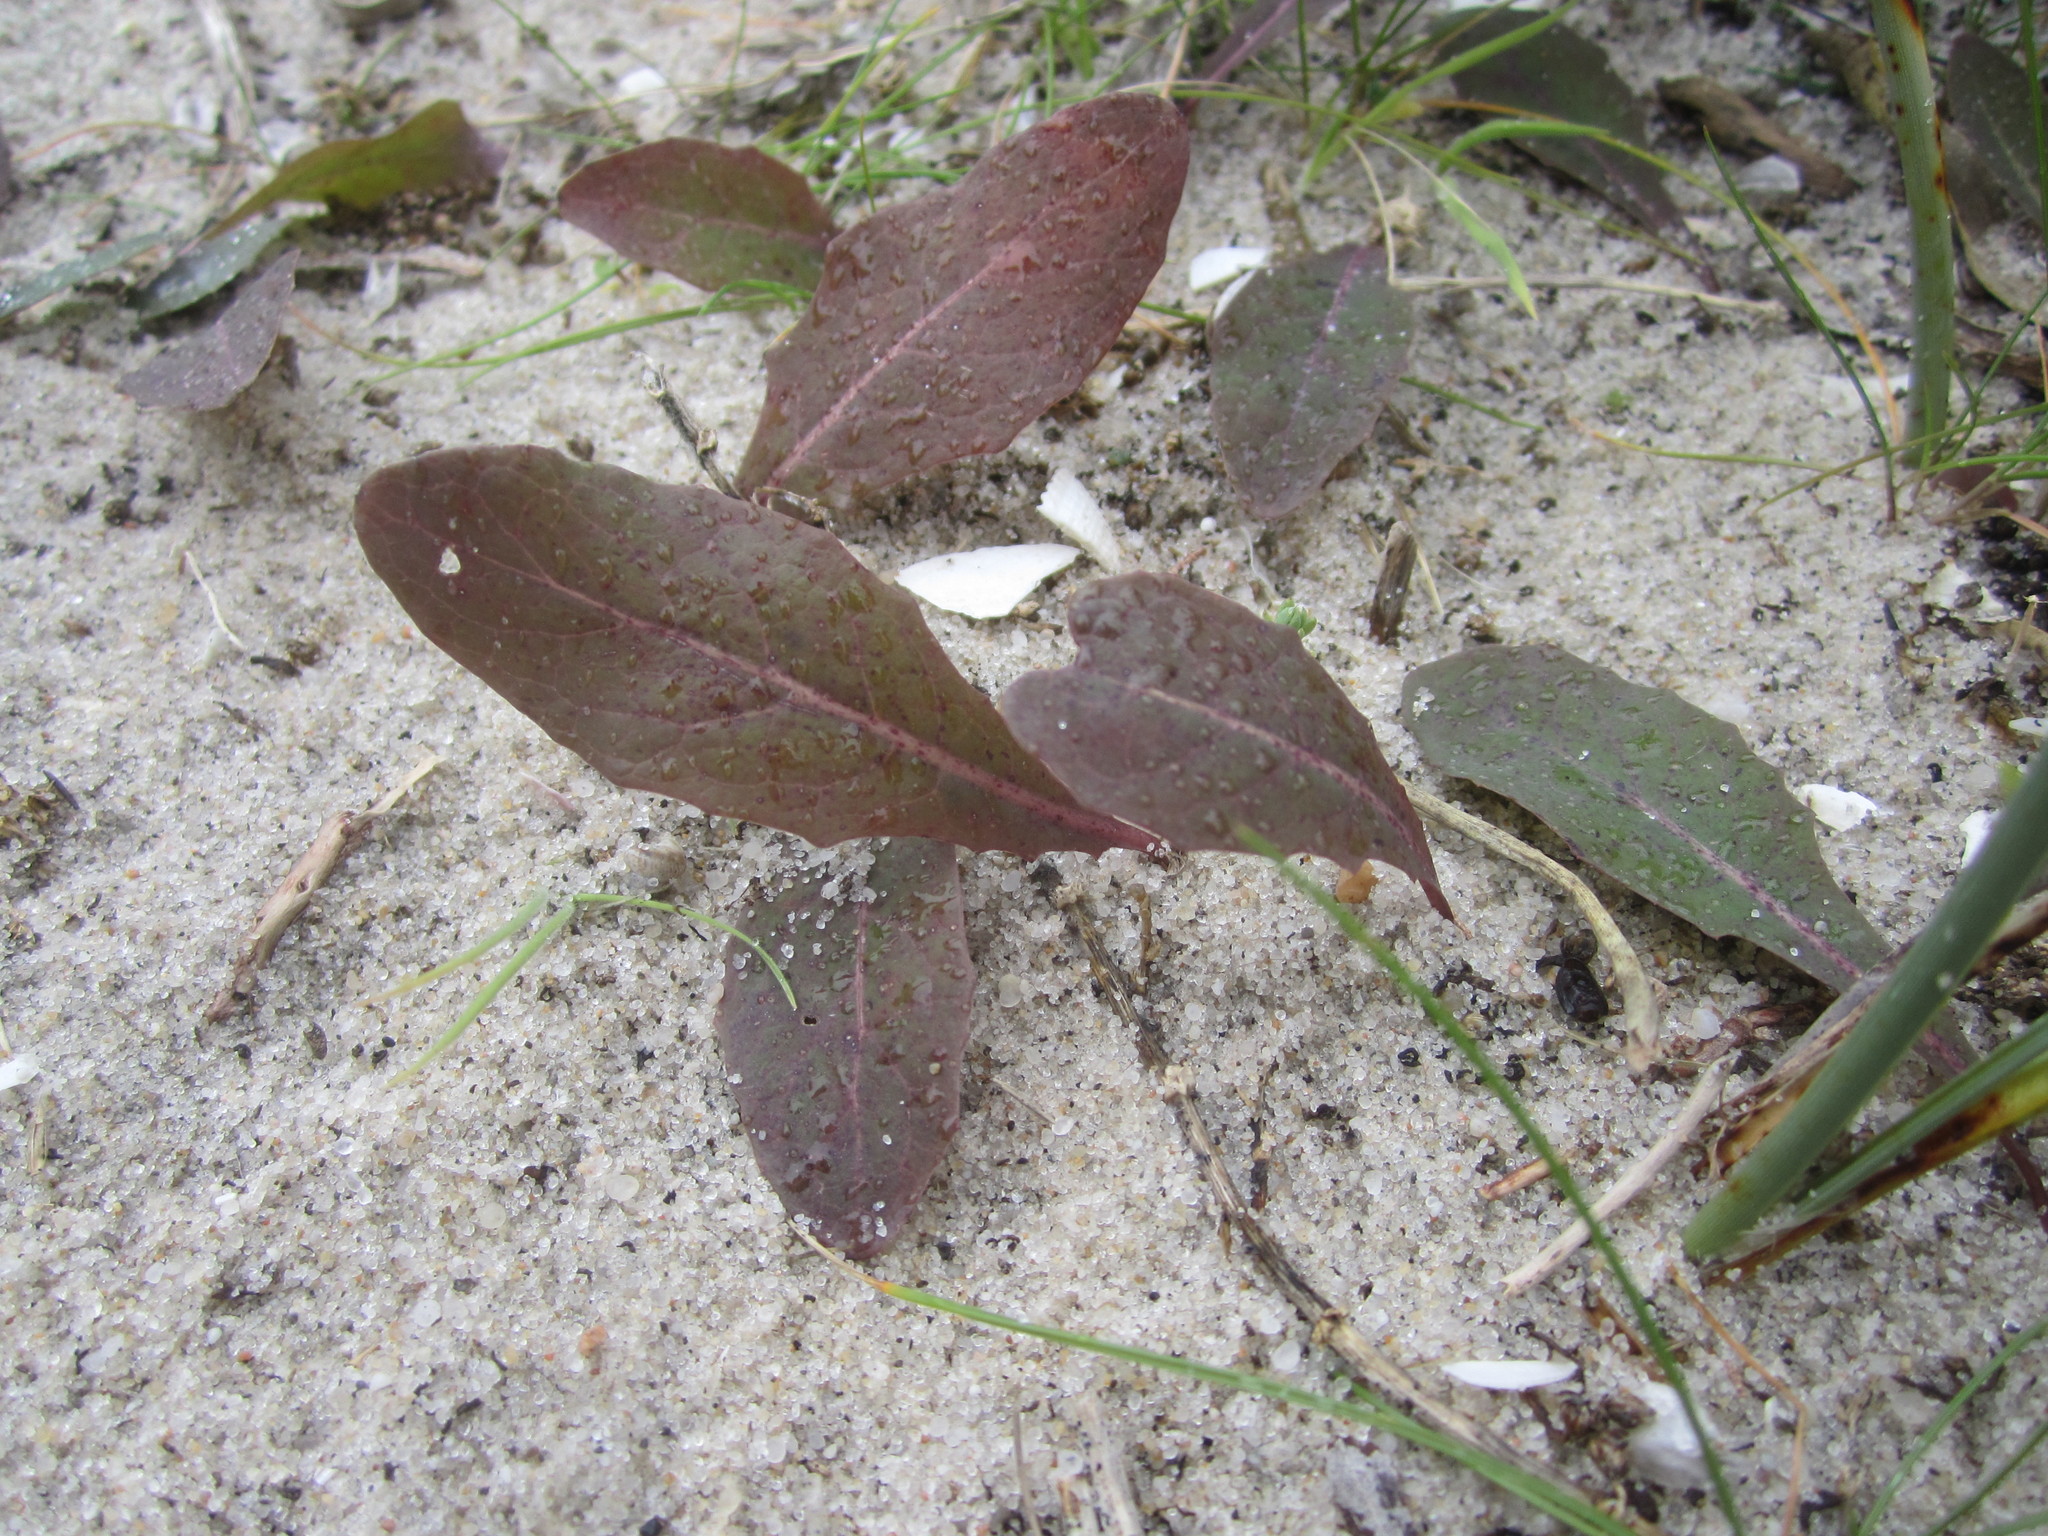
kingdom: Plantae
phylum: Tracheophyta
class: Magnoliopsida
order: Asterales
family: Asteraceae
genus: Aetheorhiza
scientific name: Aetheorhiza bulbosa
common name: Tuberous hawk's-beard
